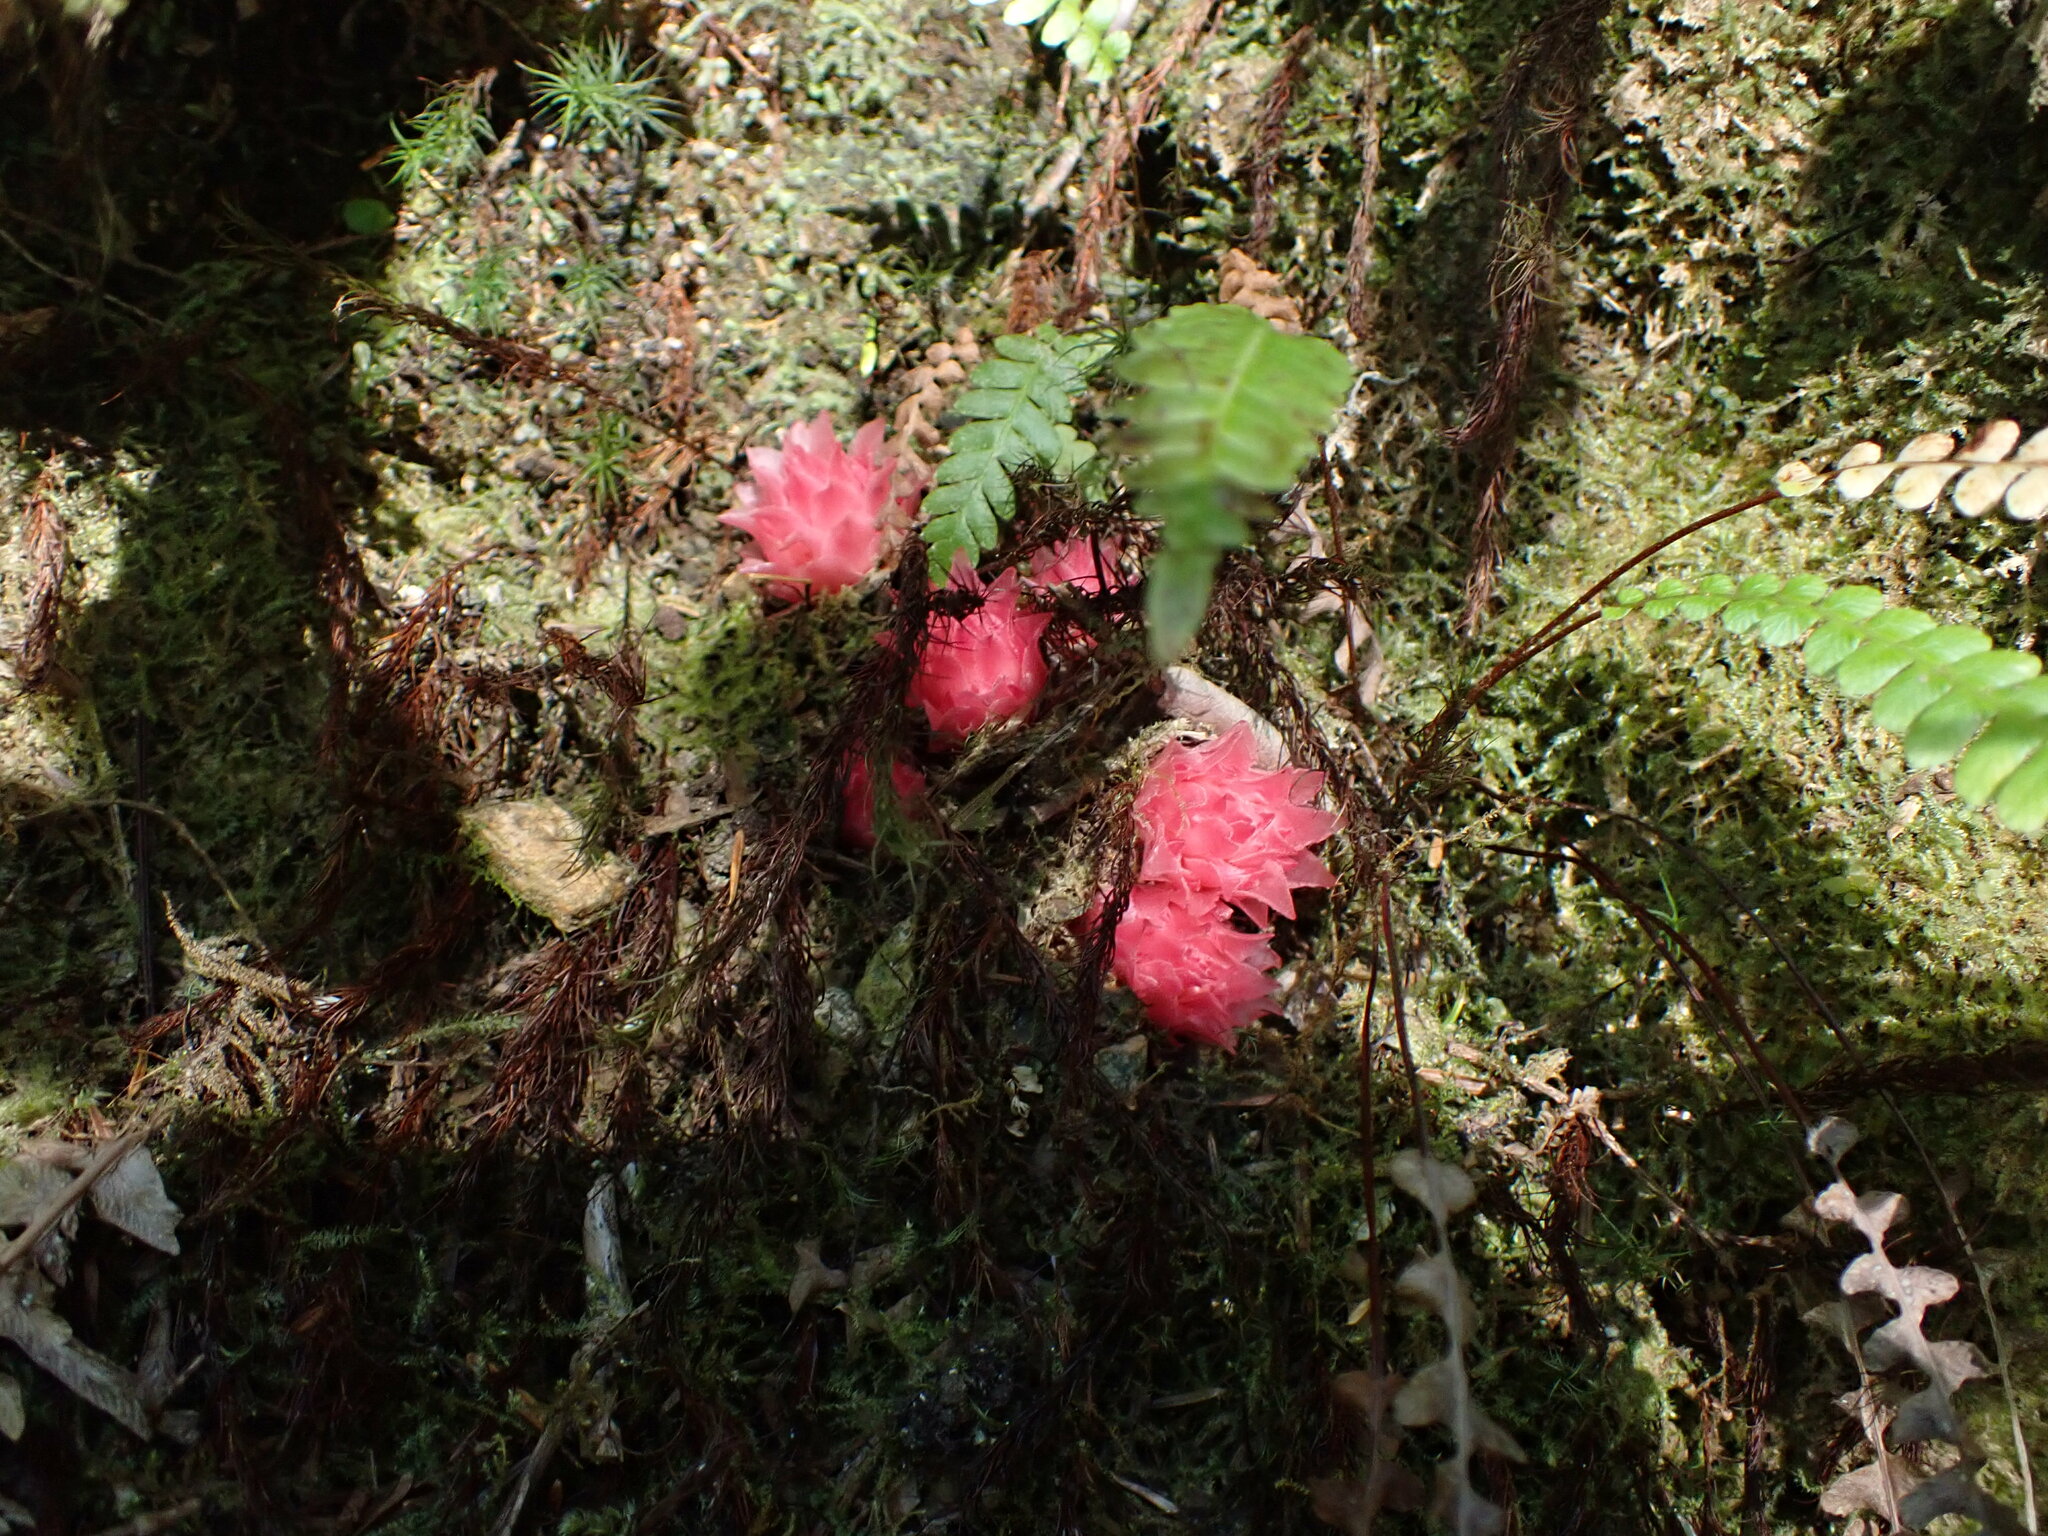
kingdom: Plantae
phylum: Tracheophyta
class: Magnoliopsida
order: Ericales
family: Ericaceae
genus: Hemitomes
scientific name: Hemitomes congestum
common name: Cone plant
